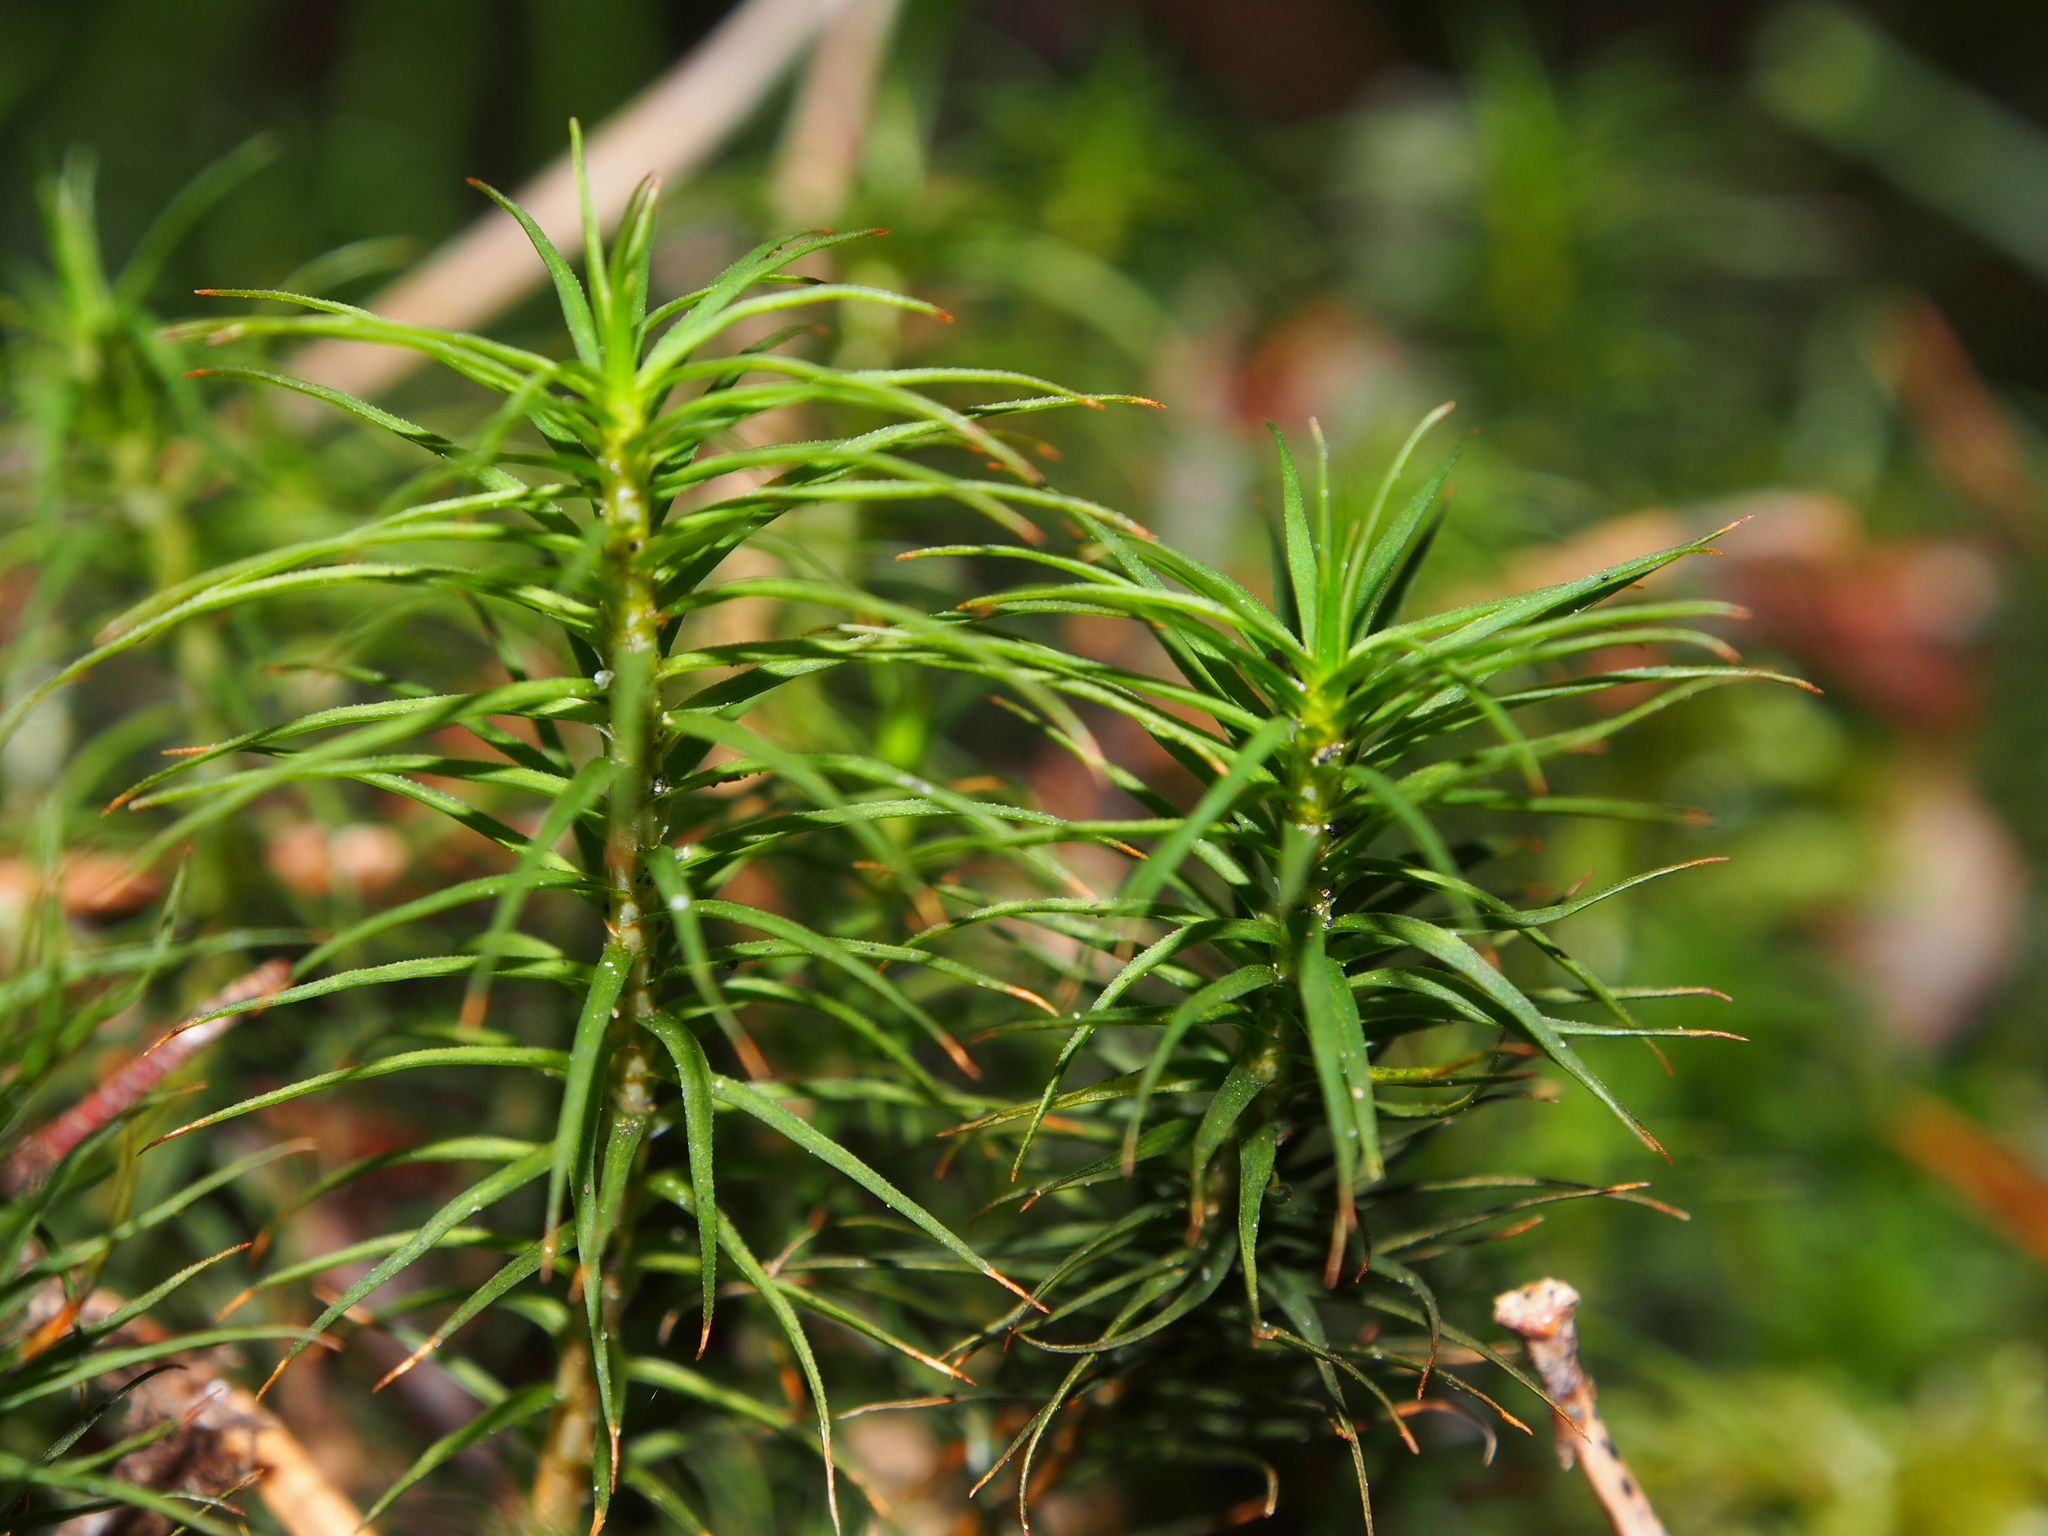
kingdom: Plantae
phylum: Bryophyta
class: Polytrichopsida
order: Polytrichales
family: Polytrichaceae
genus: Polytrichum
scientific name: Polytrichum commune
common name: Common haircap
